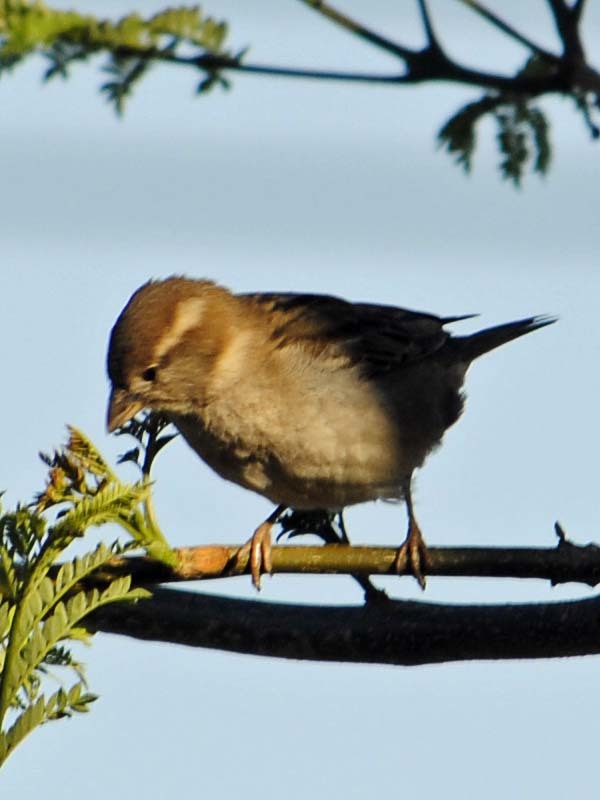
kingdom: Animalia
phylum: Chordata
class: Aves
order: Passeriformes
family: Passeridae
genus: Passer
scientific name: Passer domesticus
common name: House sparrow
